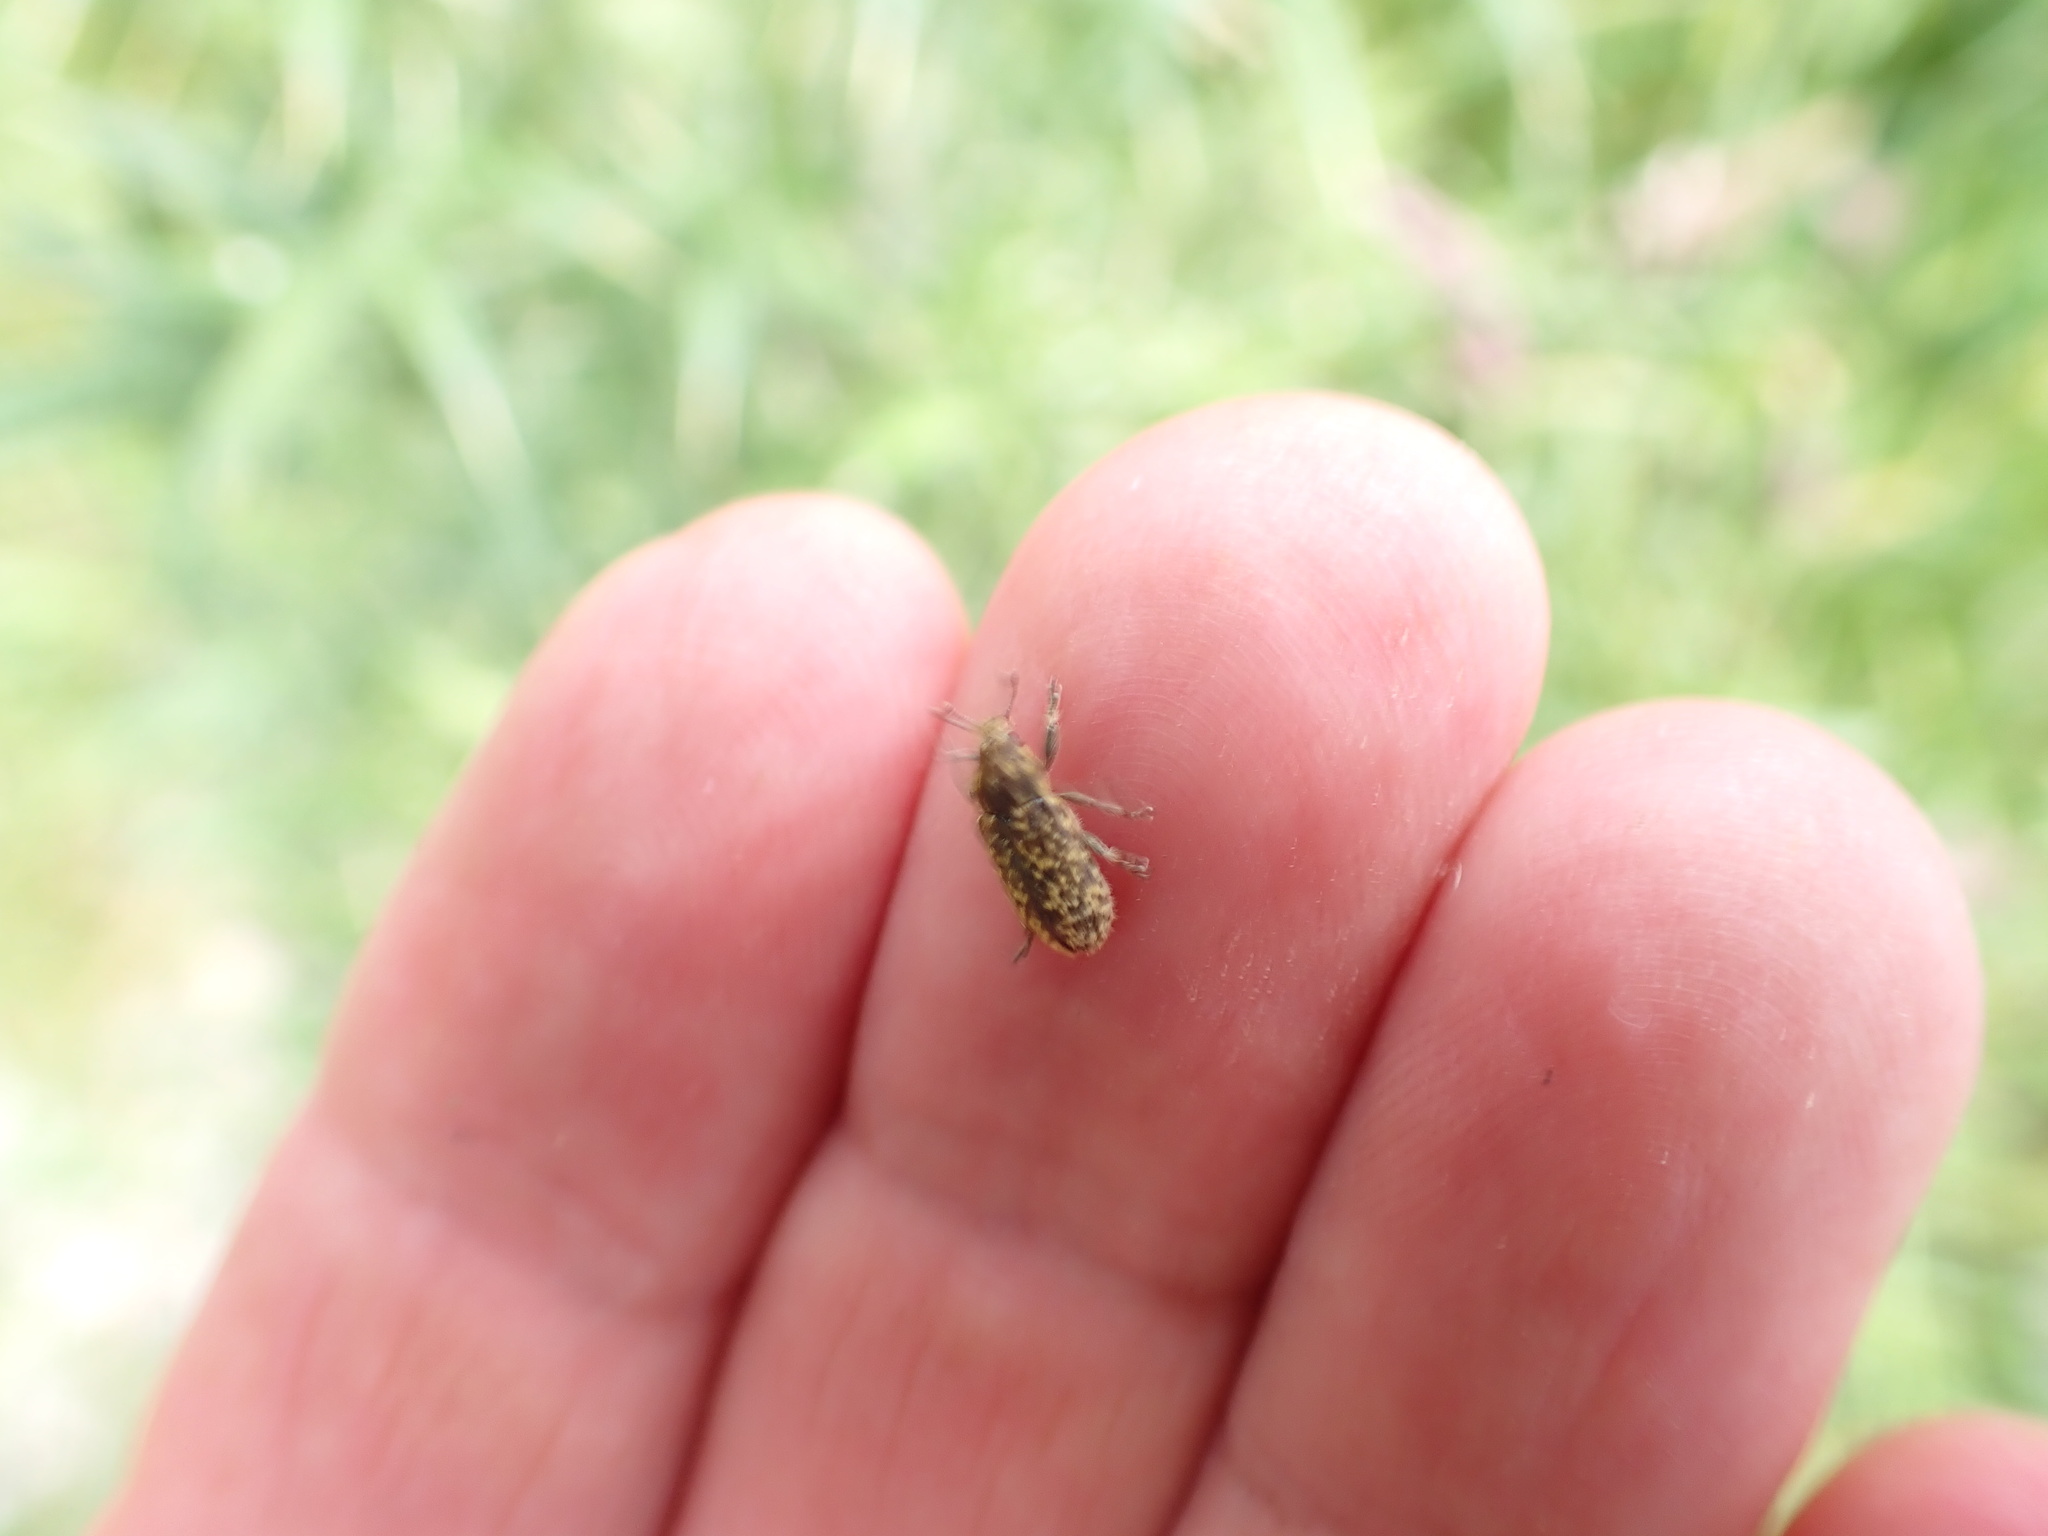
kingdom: Animalia
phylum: Arthropoda
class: Insecta
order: Coleoptera
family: Curculionidae
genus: Rhinocyllus
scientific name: Rhinocyllus conicus
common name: Weevil
